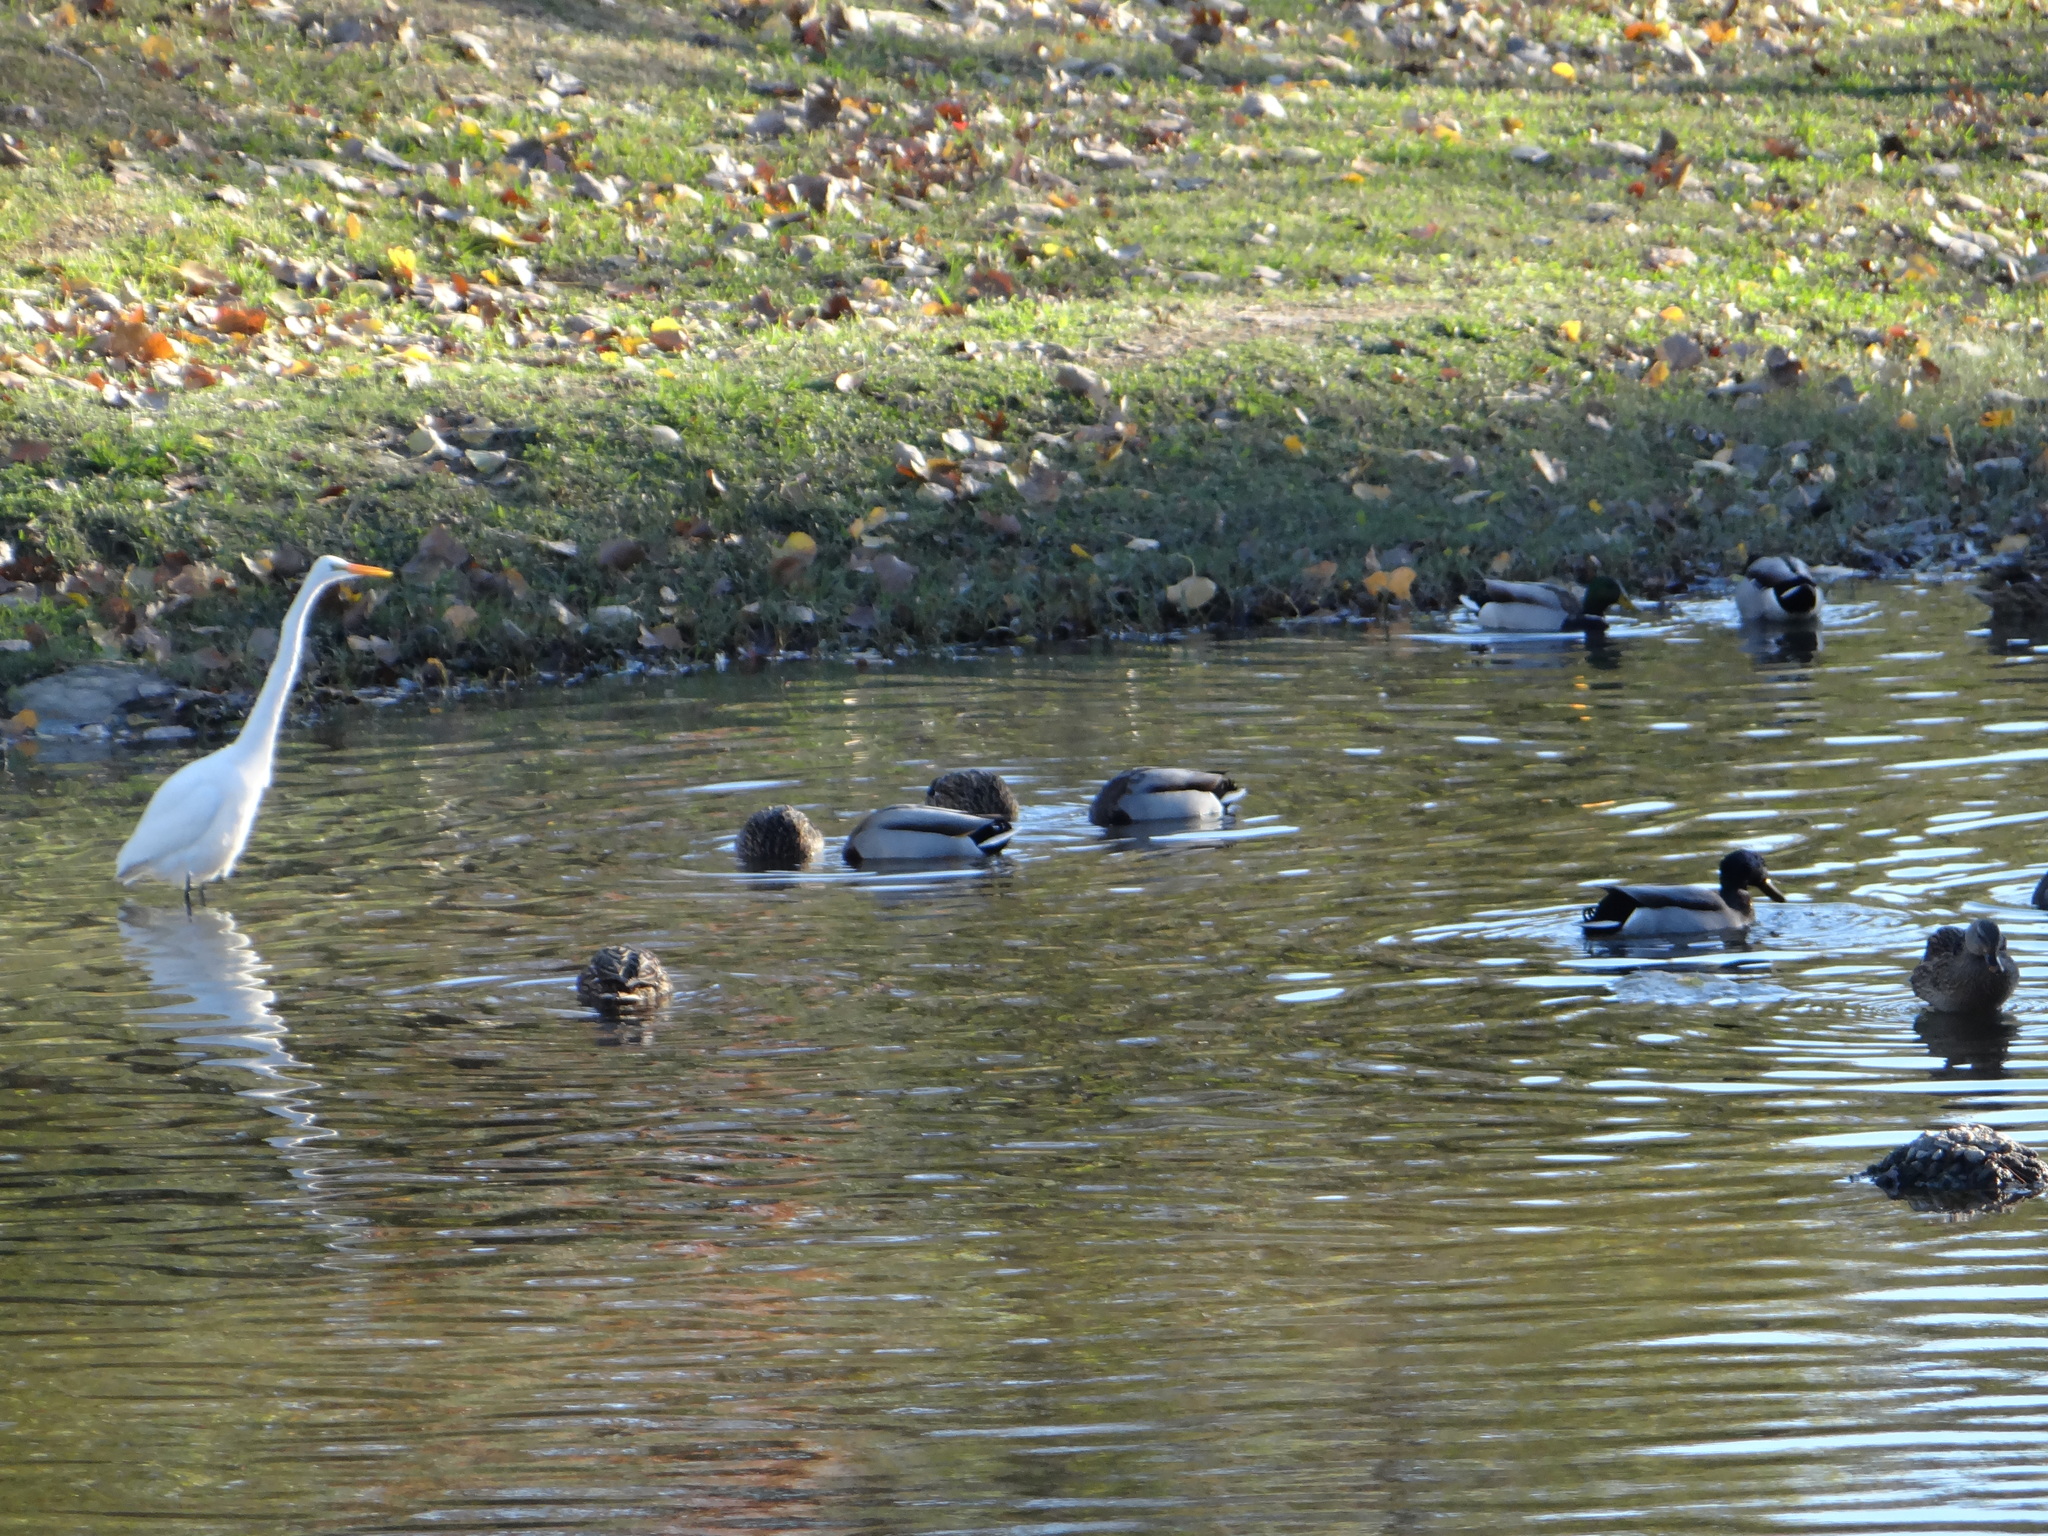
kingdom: Animalia
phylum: Chordata
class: Aves
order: Anseriformes
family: Anatidae
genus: Anas
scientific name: Anas platyrhynchos
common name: Mallard
